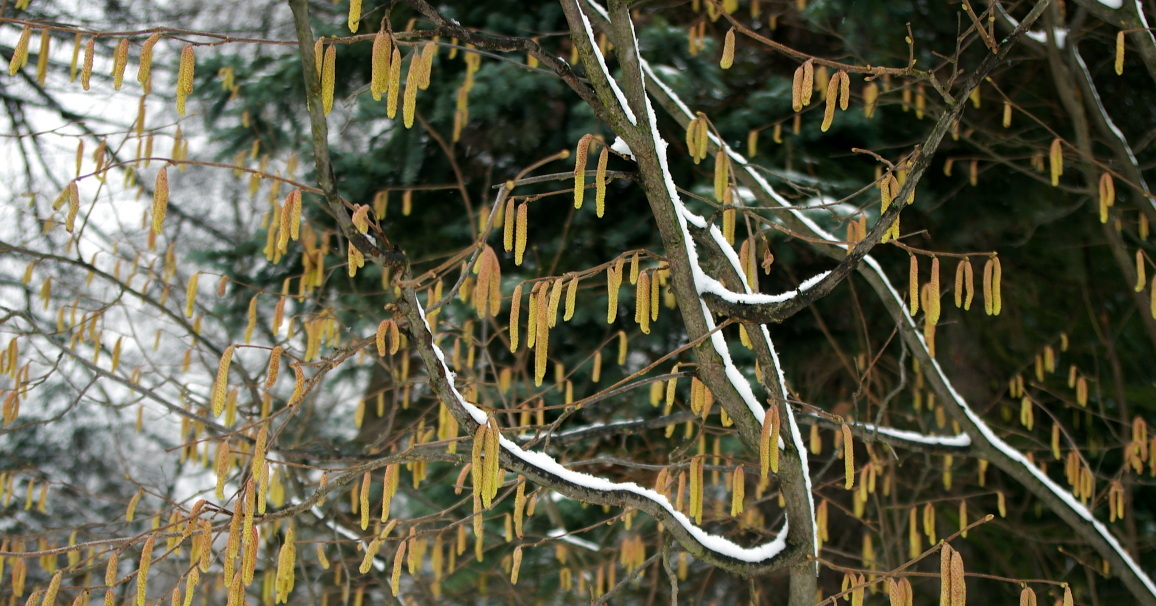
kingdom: Plantae
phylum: Tracheophyta
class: Magnoliopsida
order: Fagales
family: Betulaceae
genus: Corylus
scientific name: Corylus avellana
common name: European hazel
